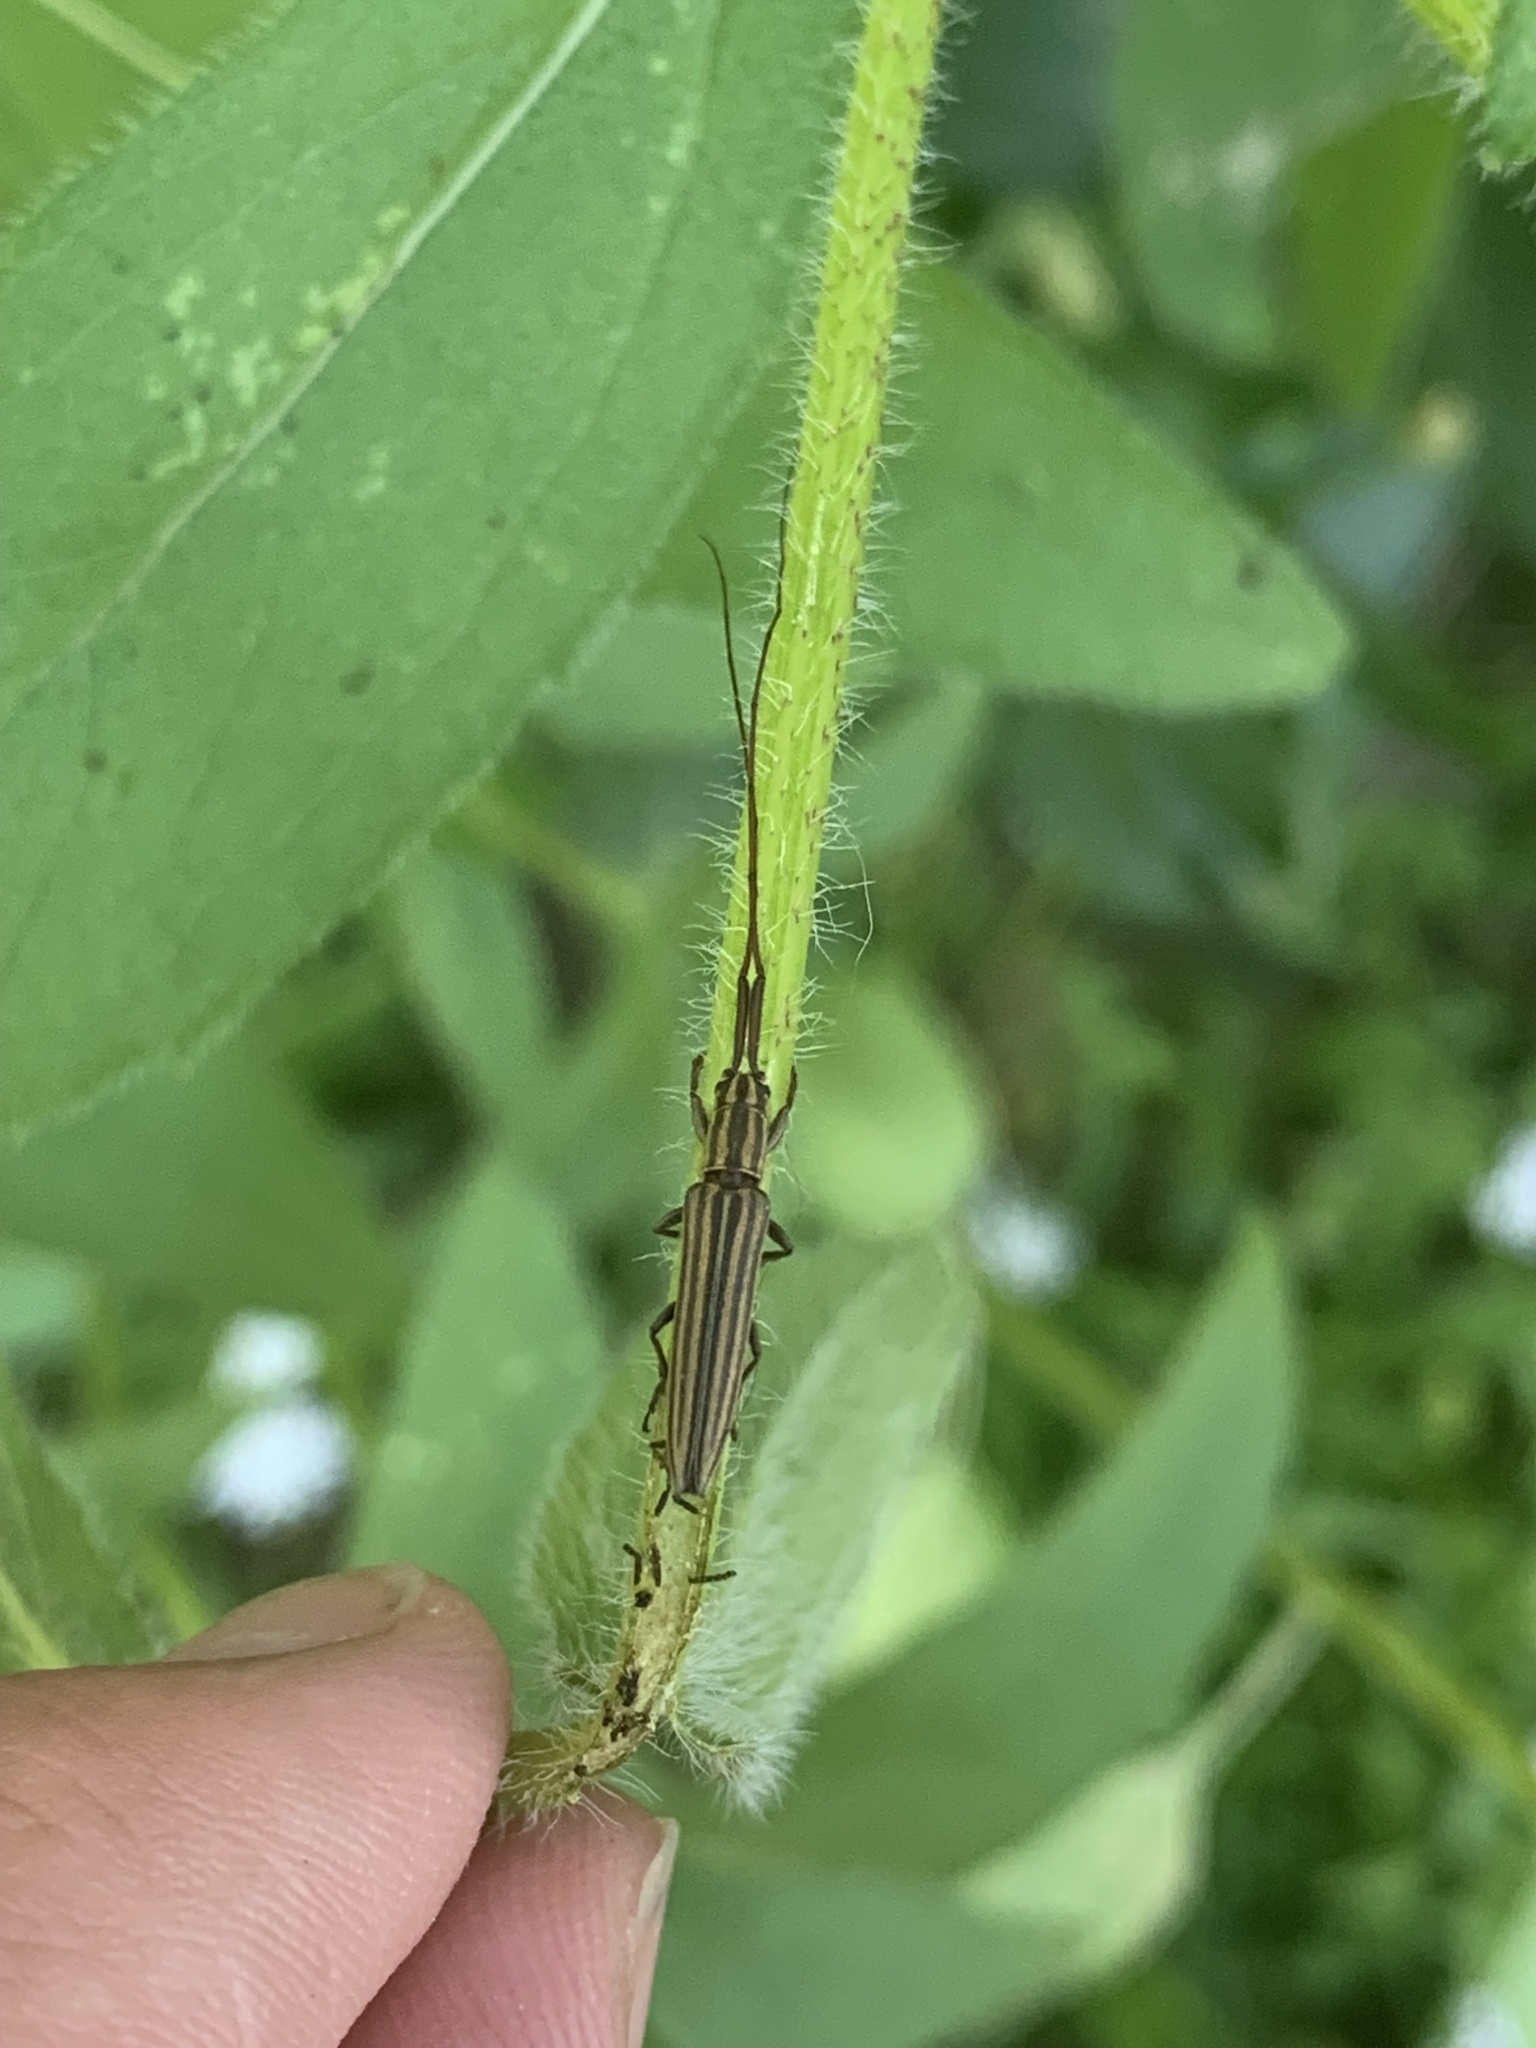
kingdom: Animalia
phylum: Arthropoda
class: Insecta
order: Coleoptera
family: Cerambycidae
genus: Hippopsis
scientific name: Hippopsis
